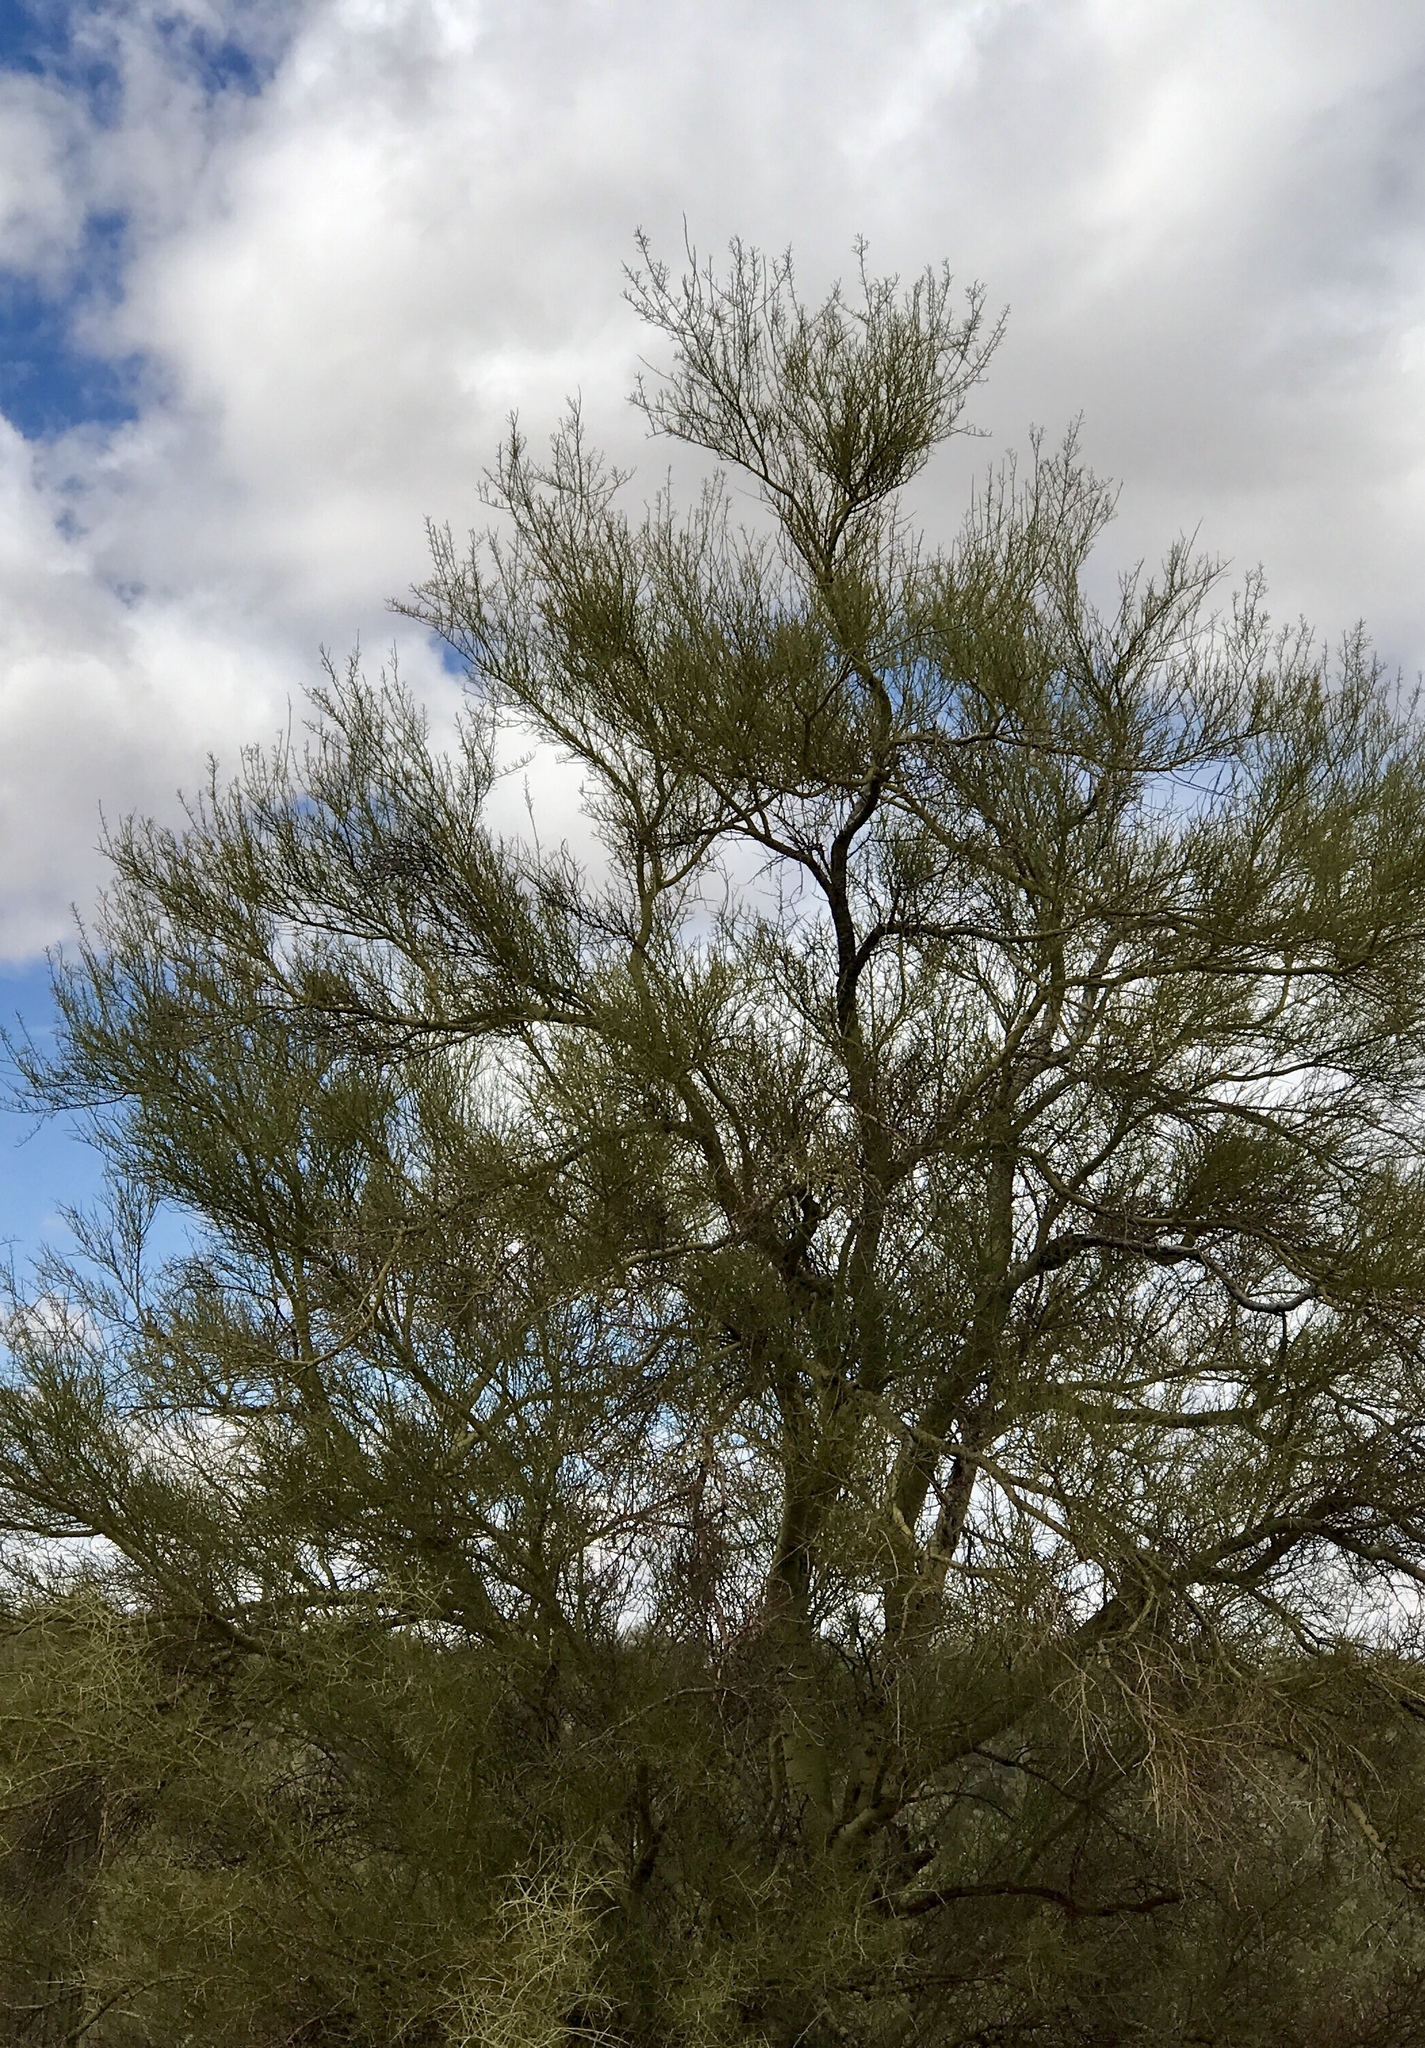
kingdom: Plantae
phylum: Tracheophyta
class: Magnoliopsida
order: Fabales
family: Fabaceae
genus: Parkinsonia
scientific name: Parkinsonia microphylla
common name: Yellow paloverde
